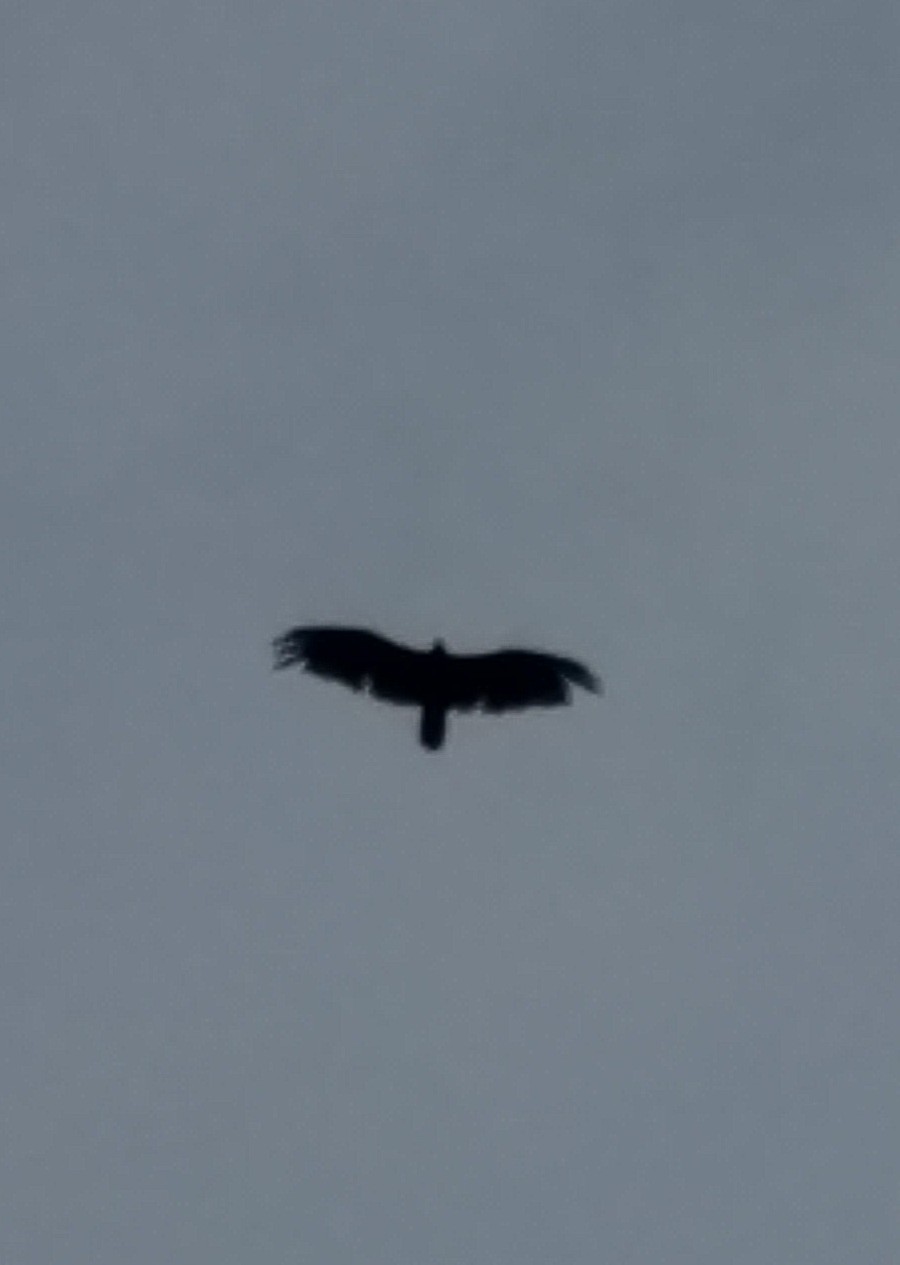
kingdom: Animalia
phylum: Chordata
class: Aves
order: Accipitriformes
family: Cathartidae
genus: Cathartes
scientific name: Cathartes aura
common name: Turkey vulture
